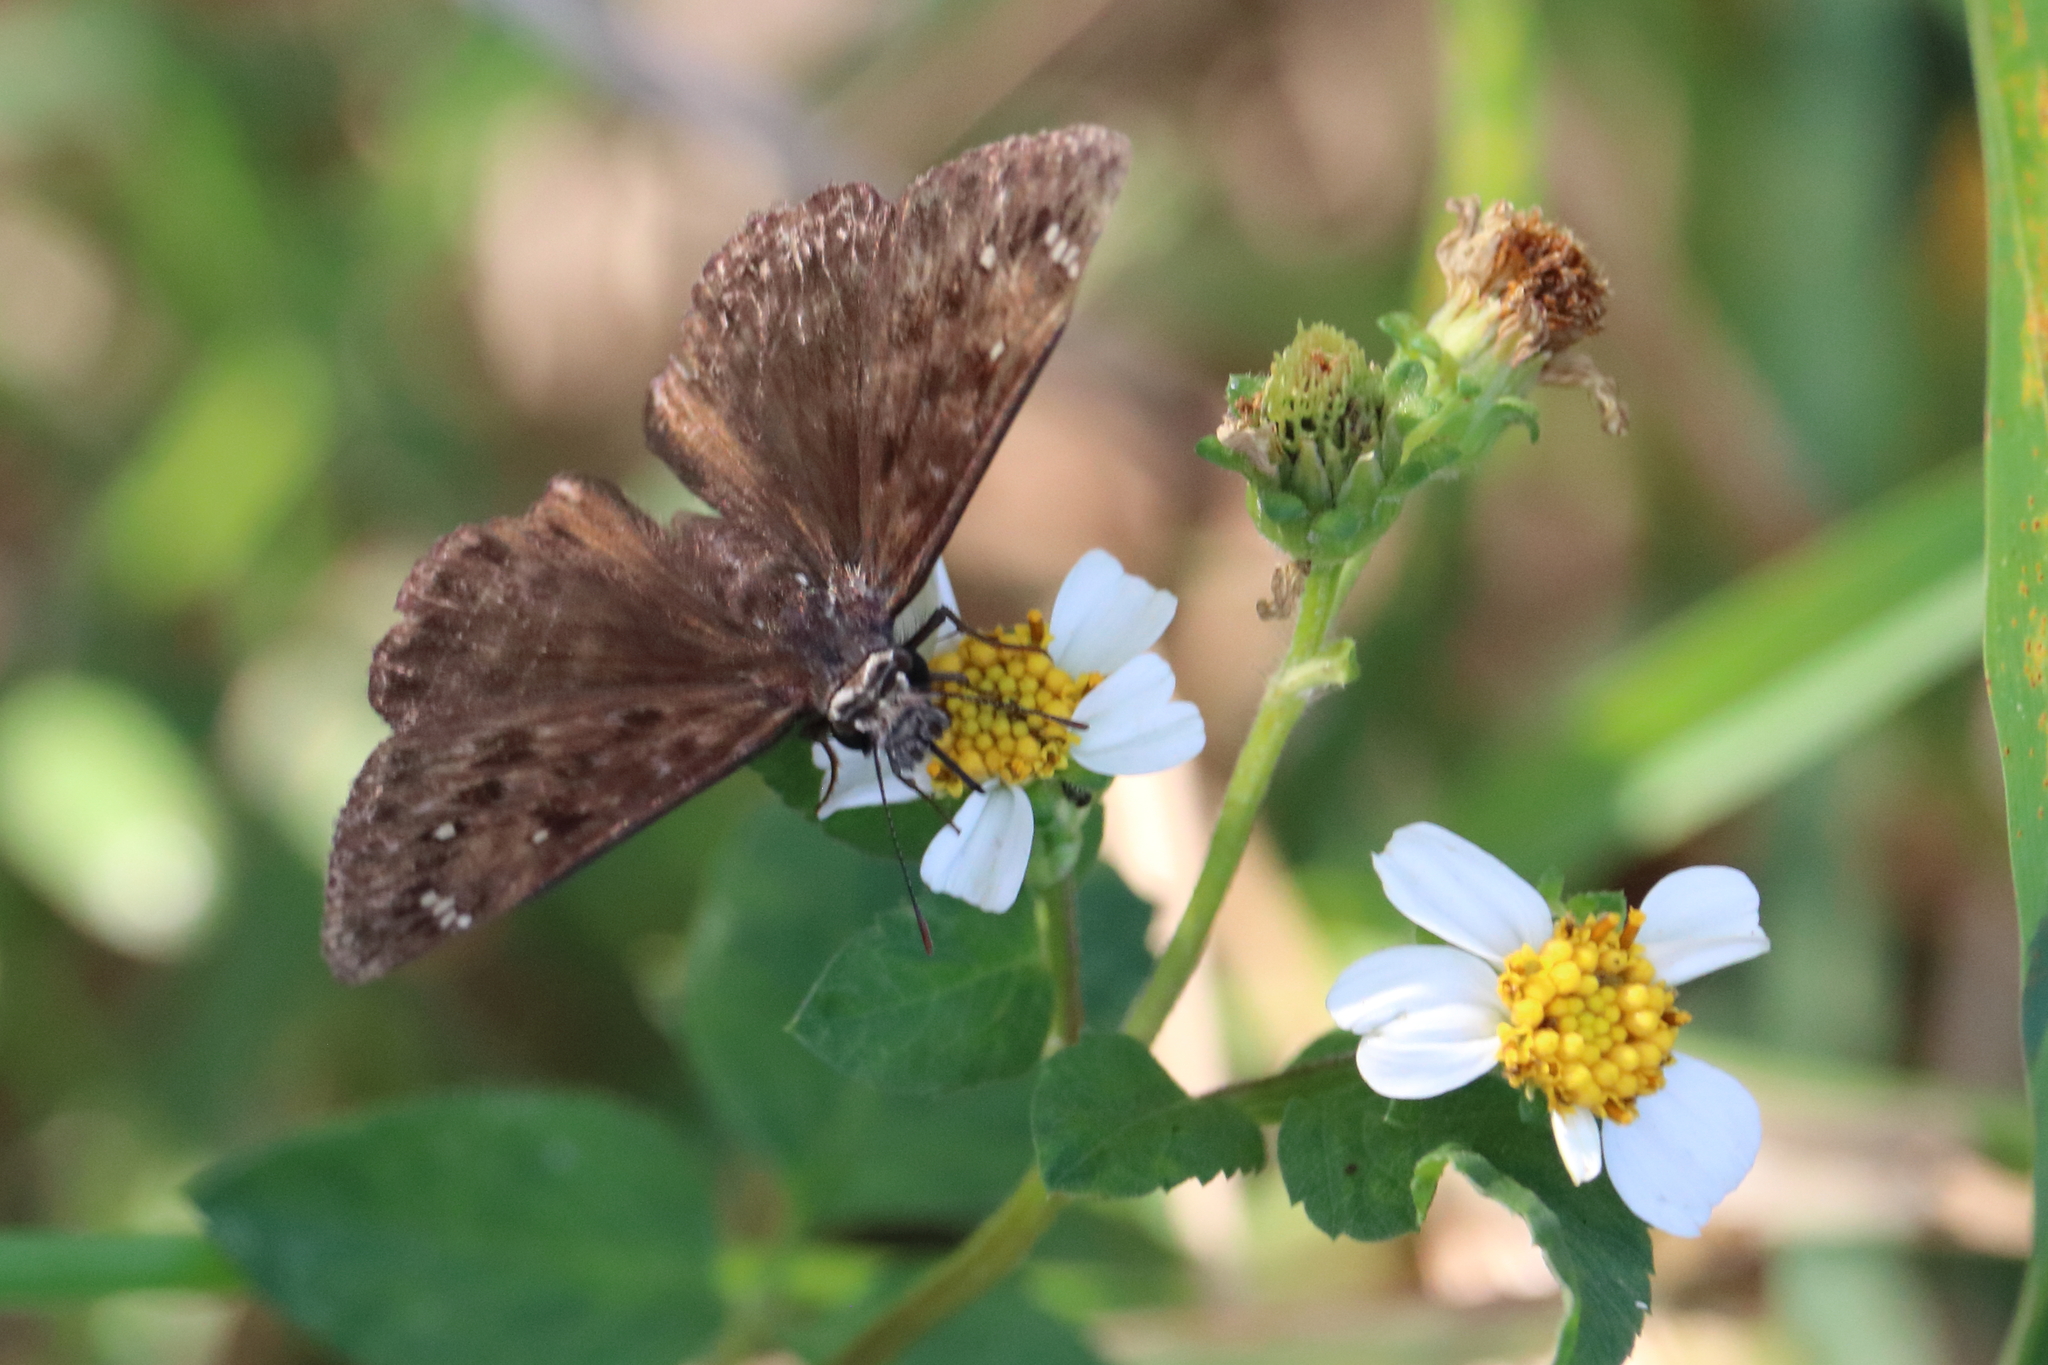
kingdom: Animalia
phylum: Arthropoda
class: Insecta
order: Lepidoptera
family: Hesperiidae
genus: Erynnis
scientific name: Erynnis horatius
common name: Horace's duskywing
